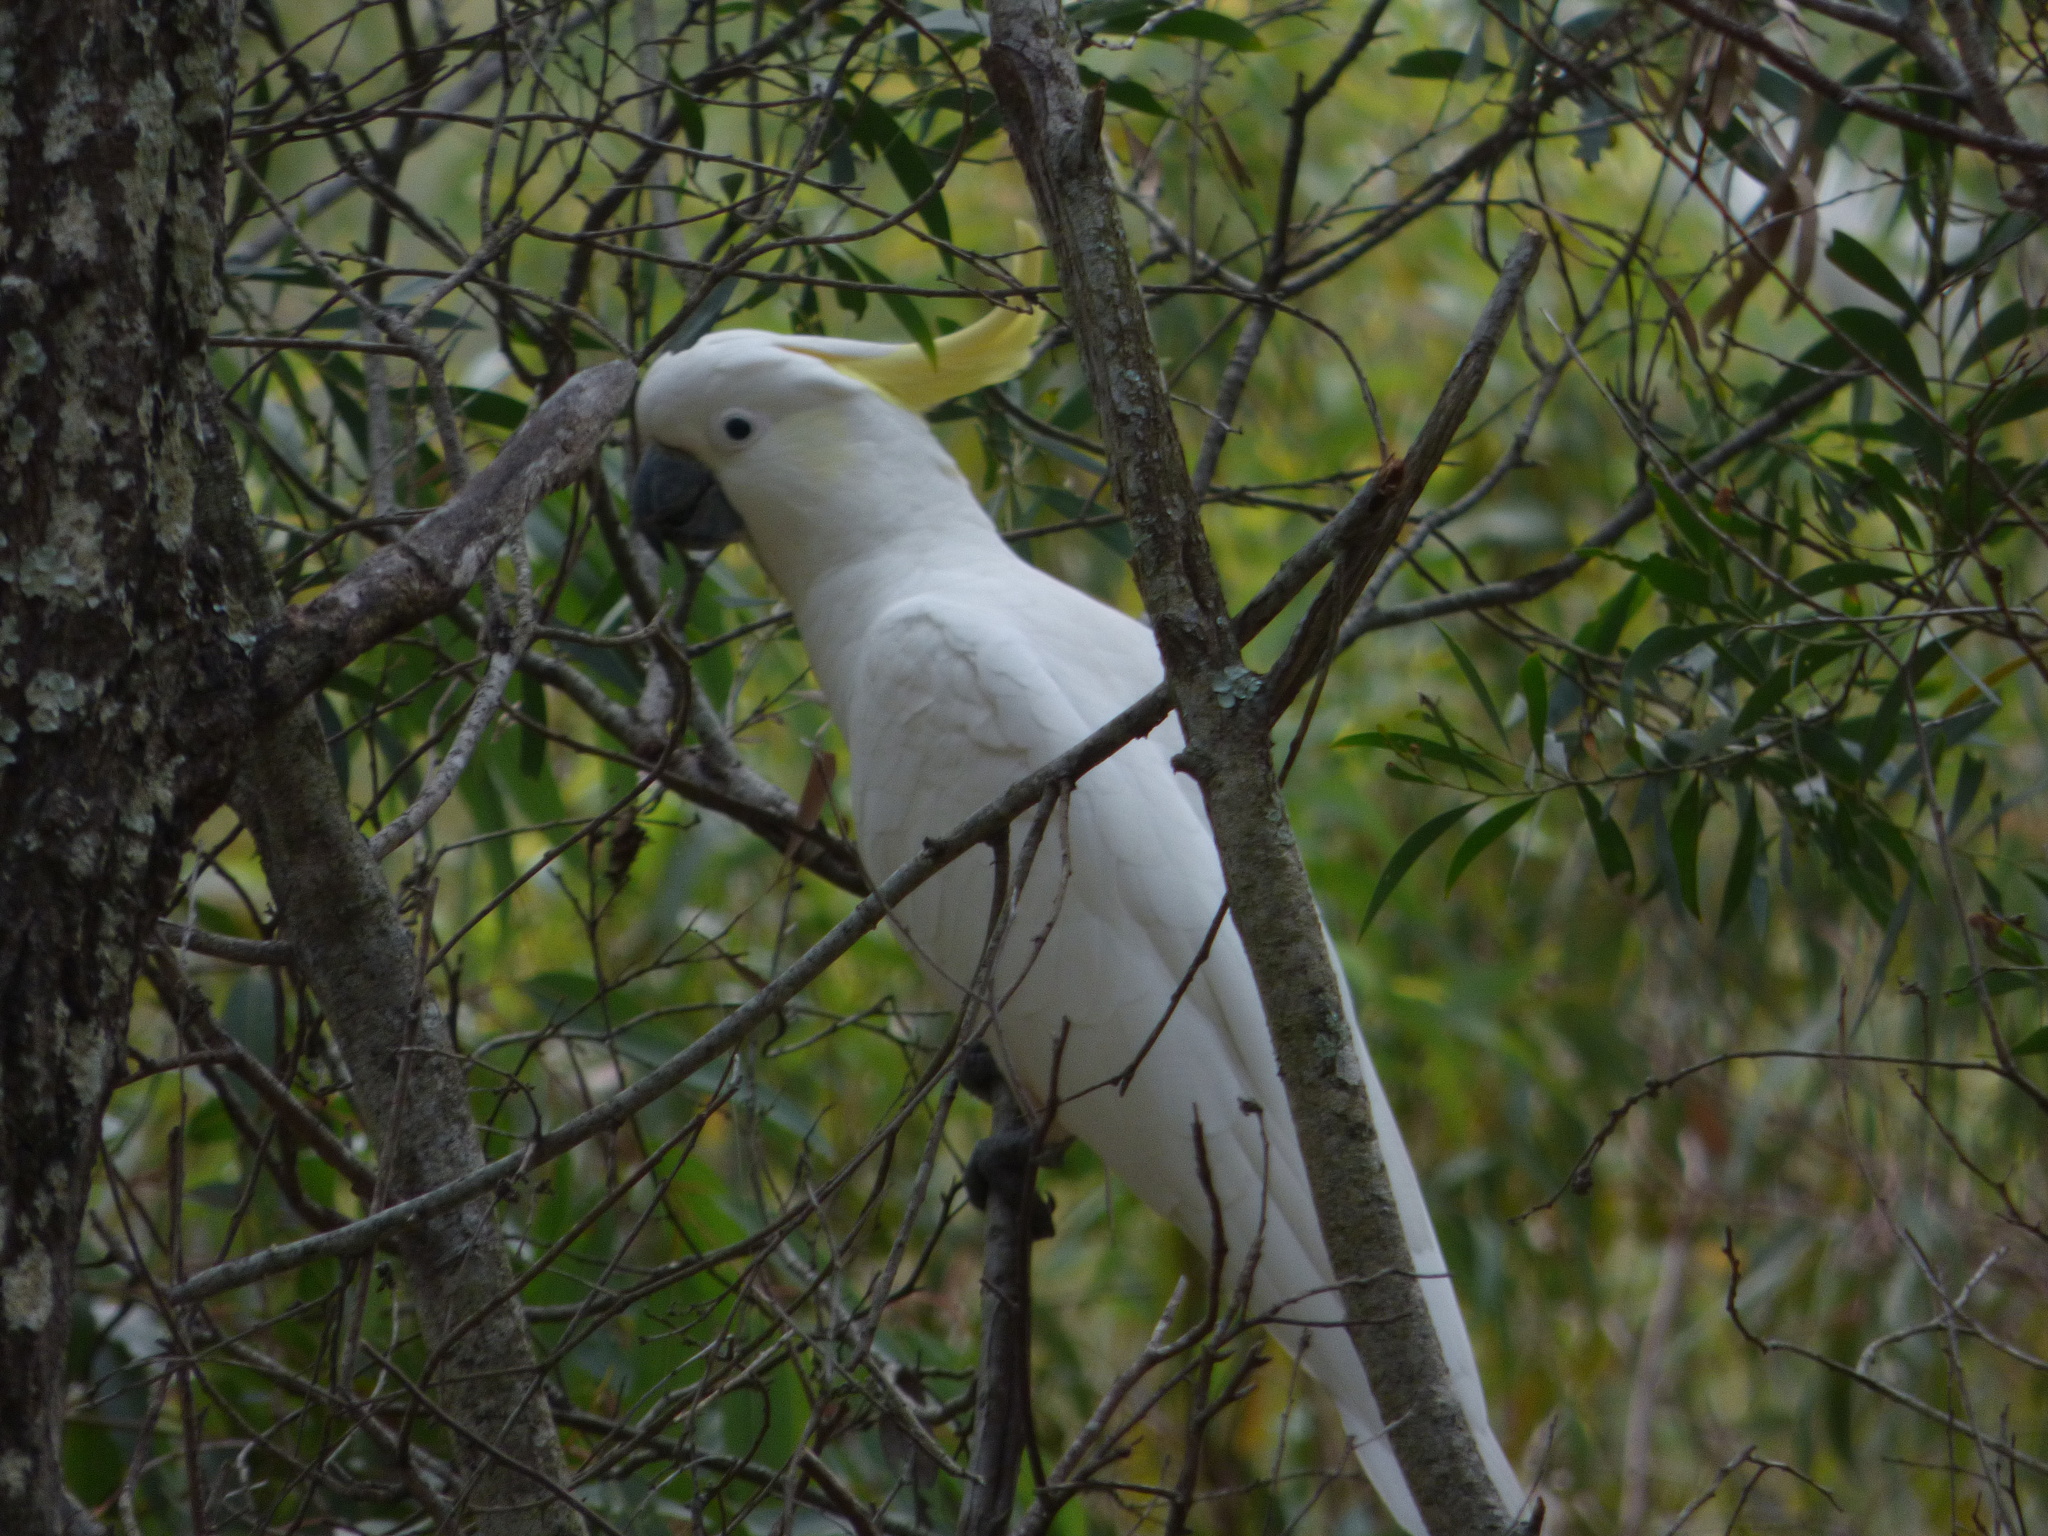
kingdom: Animalia
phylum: Chordata
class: Aves
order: Psittaciformes
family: Psittacidae
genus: Cacatua
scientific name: Cacatua galerita
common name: Sulphur-crested cockatoo
